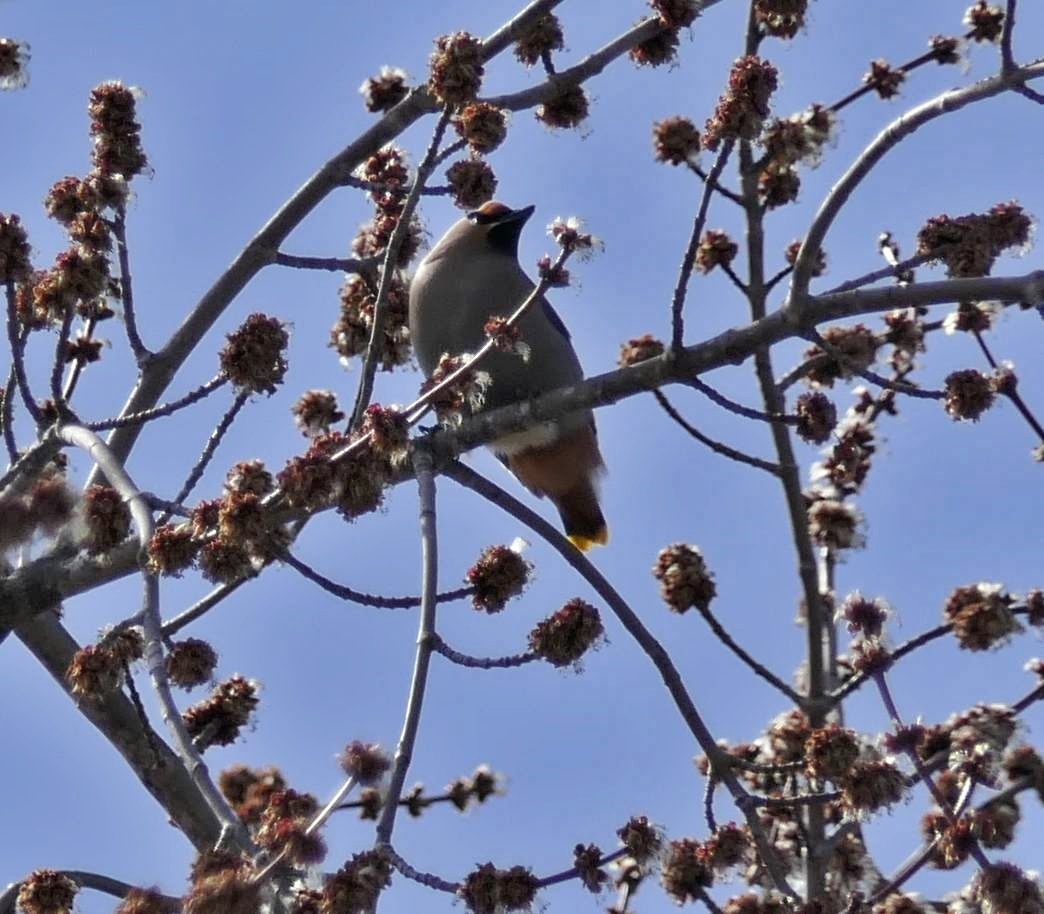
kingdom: Animalia
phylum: Chordata
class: Aves
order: Passeriformes
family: Bombycillidae
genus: Bombycilla
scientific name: Bombycilla garrulus
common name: Bohemian waxwing
